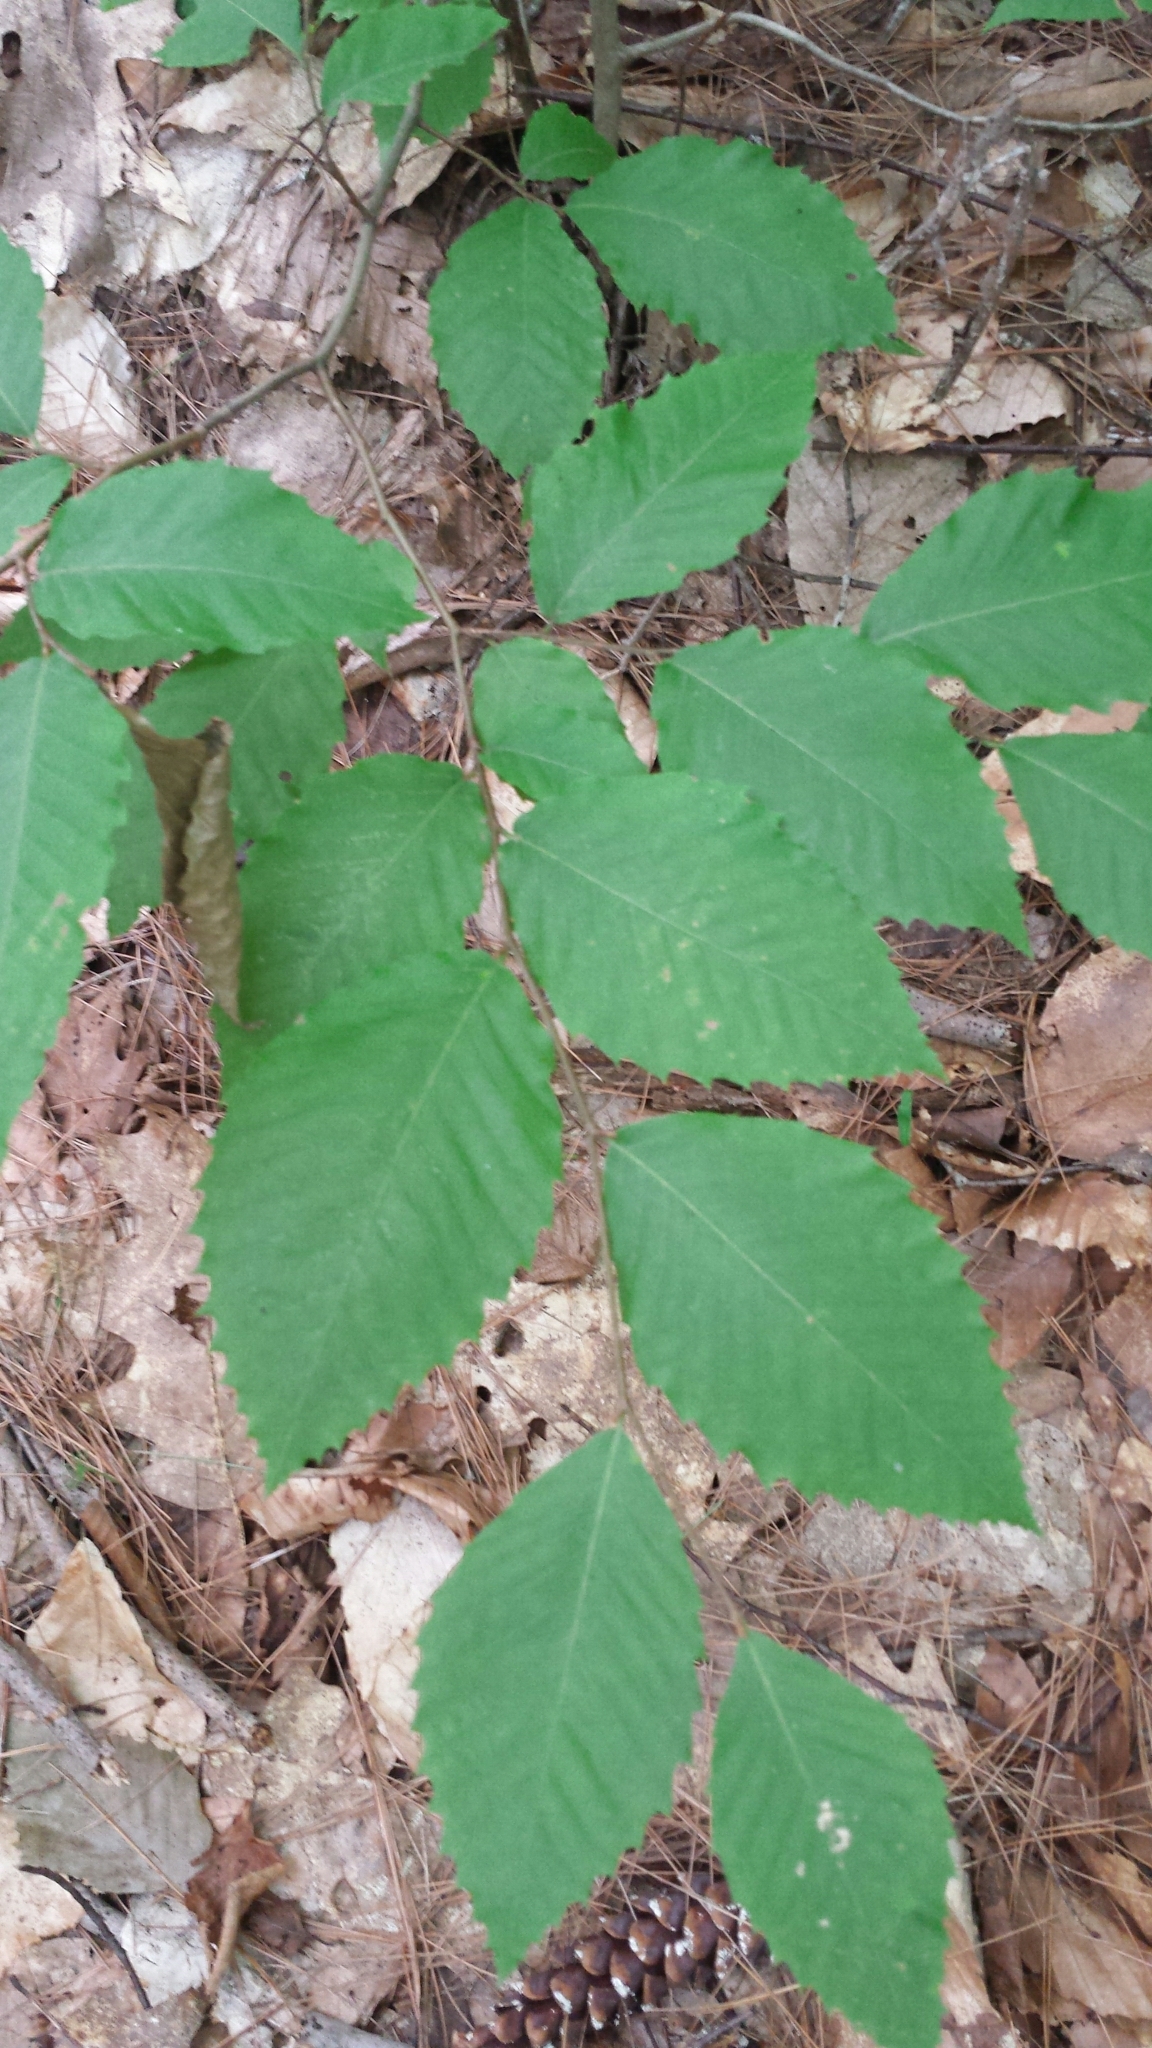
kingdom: Plantae
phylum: Tracheophyta
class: Magnoliopsida
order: Fagales
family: Fagaceae
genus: Fagus
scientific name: Fagus grandifolia
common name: American beech
